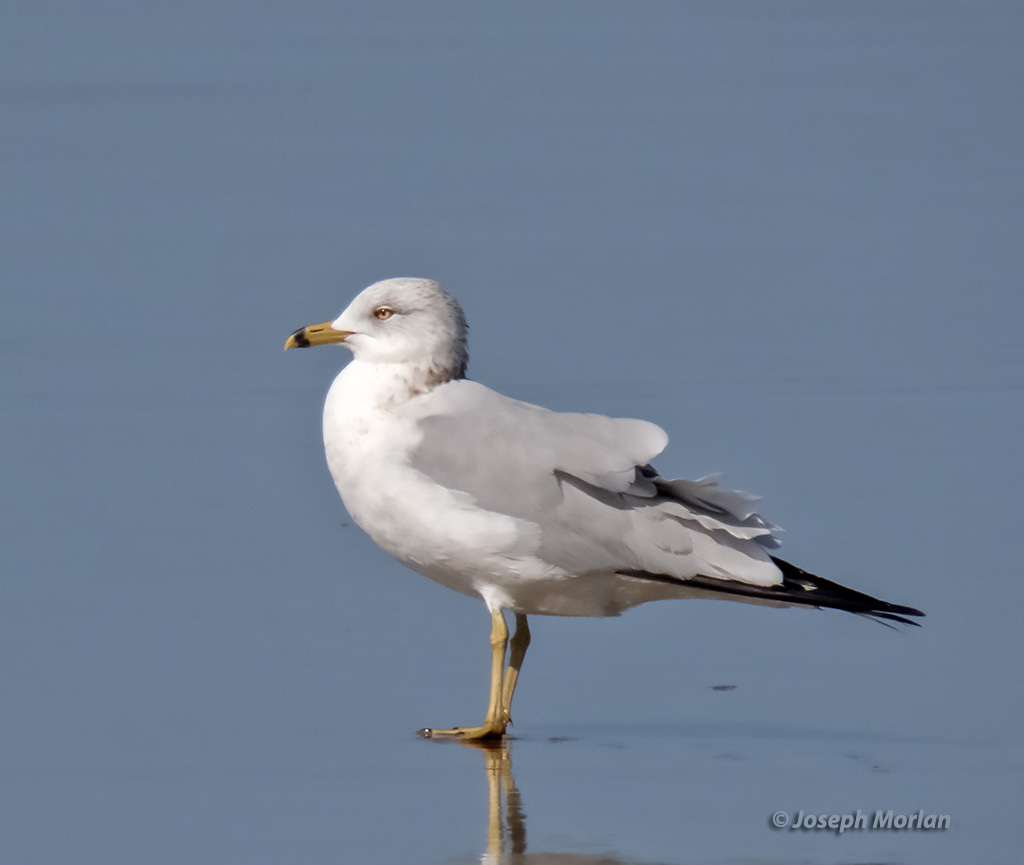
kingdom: Animalia
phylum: Chordata
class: Aves
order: Charadriiformes
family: Laridae
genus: Larus
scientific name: Larus delawarensis
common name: Ring-billed gull
